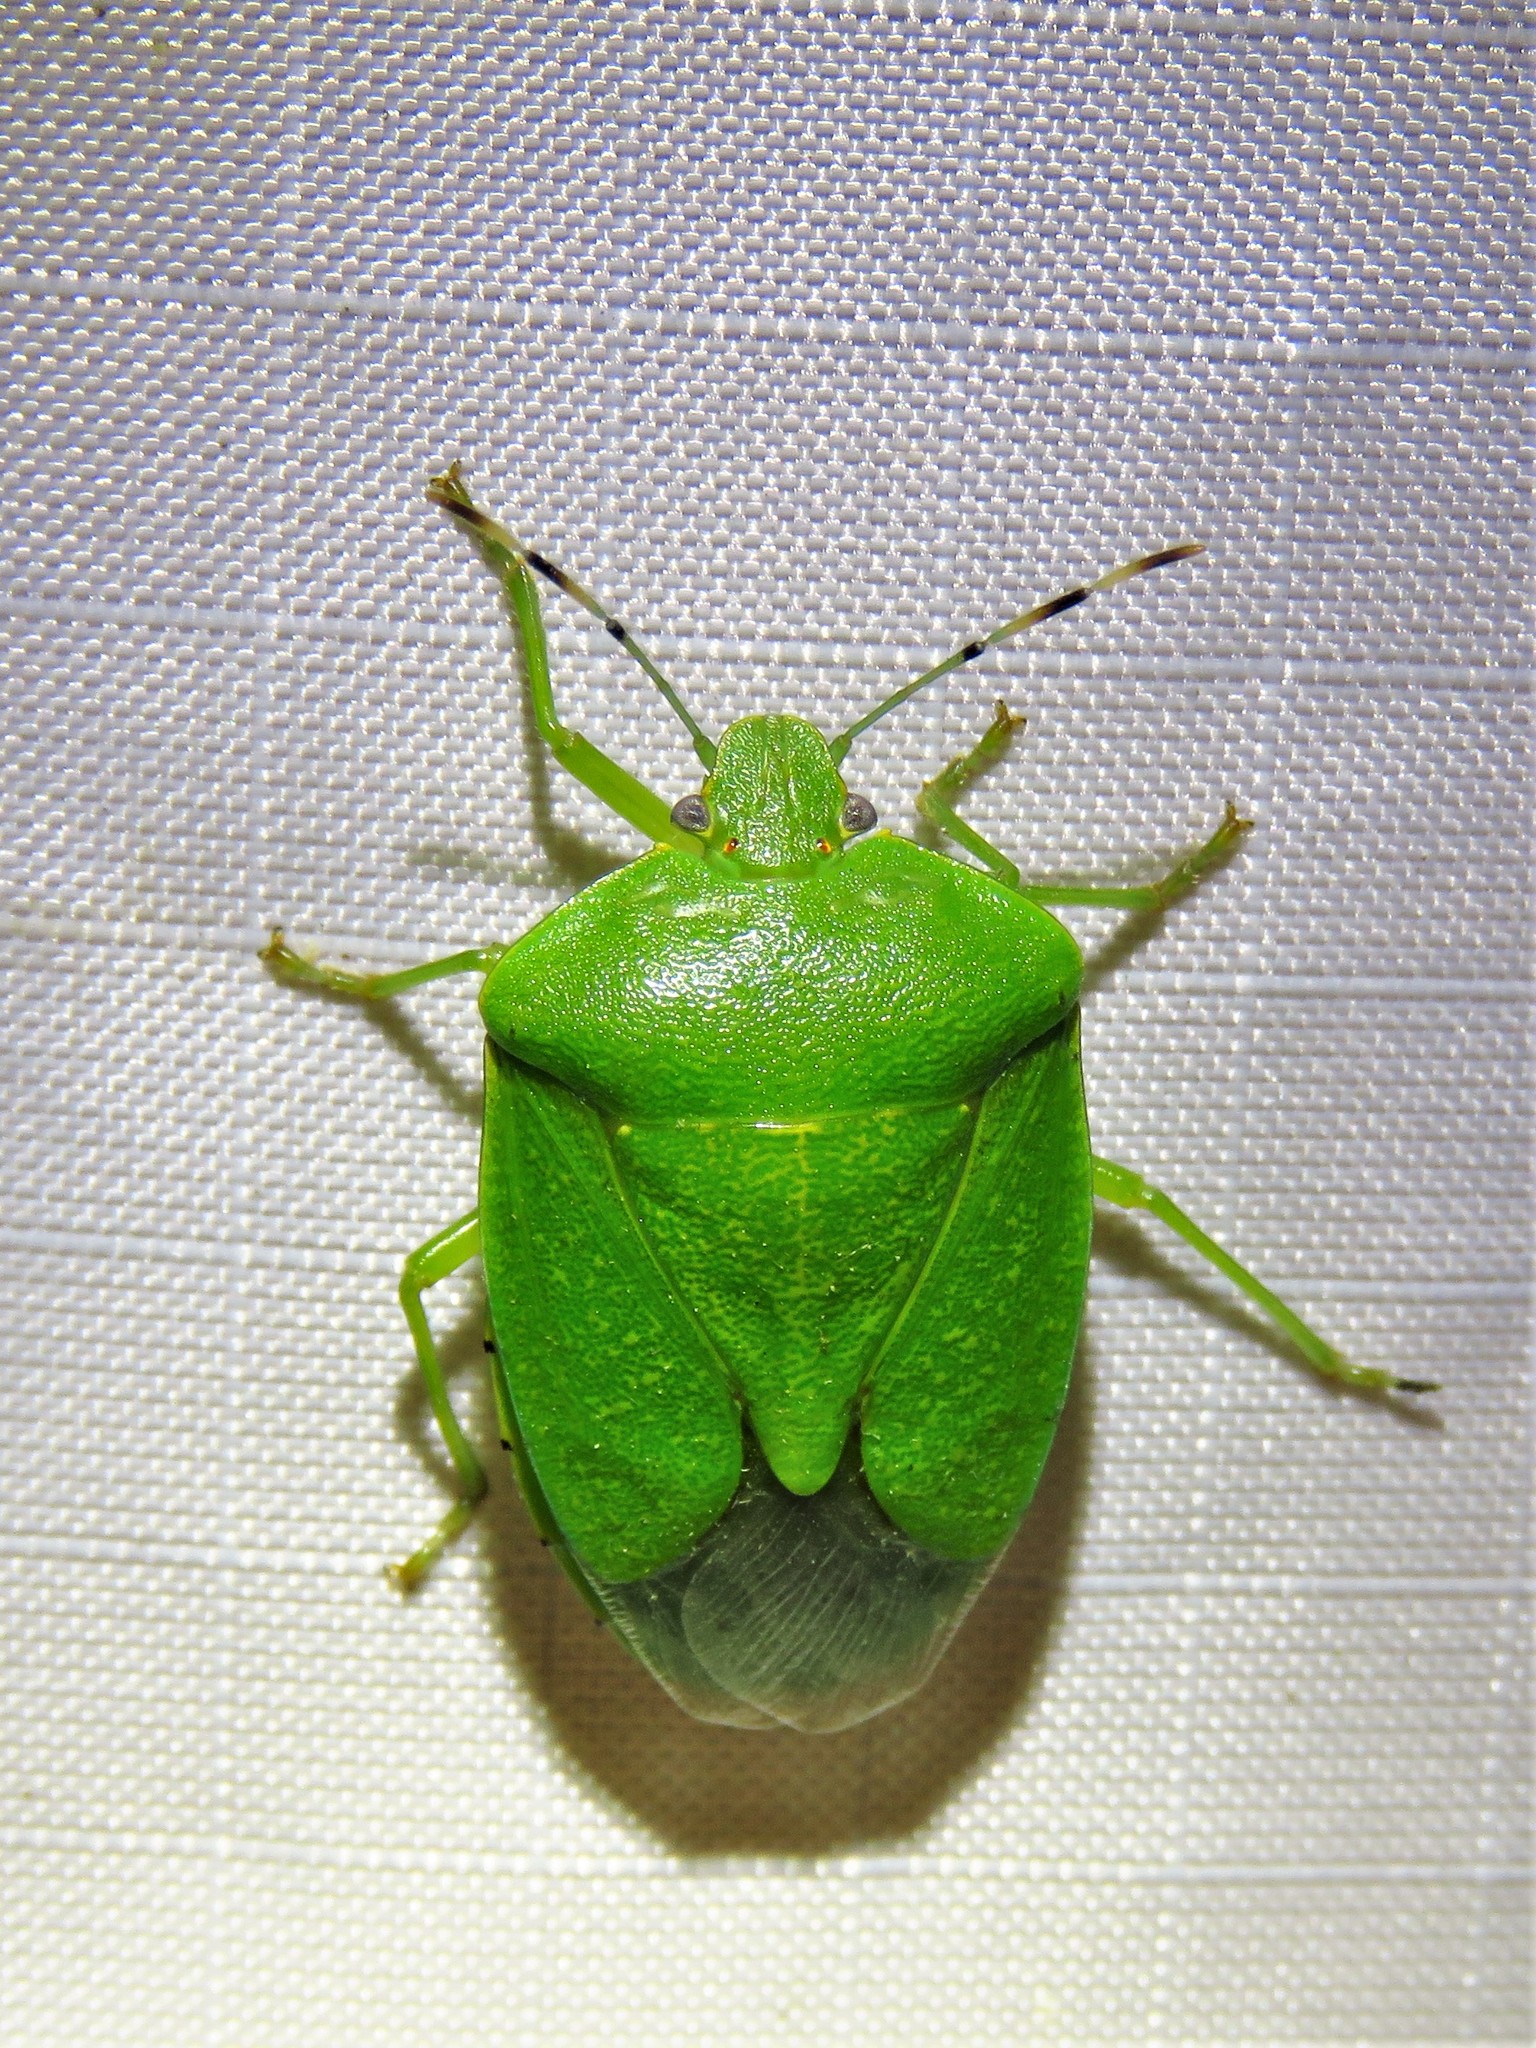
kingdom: Animalia
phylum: Arthropoda
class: Insecta
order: Hemiptera
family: Pentatomidae
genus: Chinavia
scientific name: Chinavia hilaris
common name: Green stink bug
